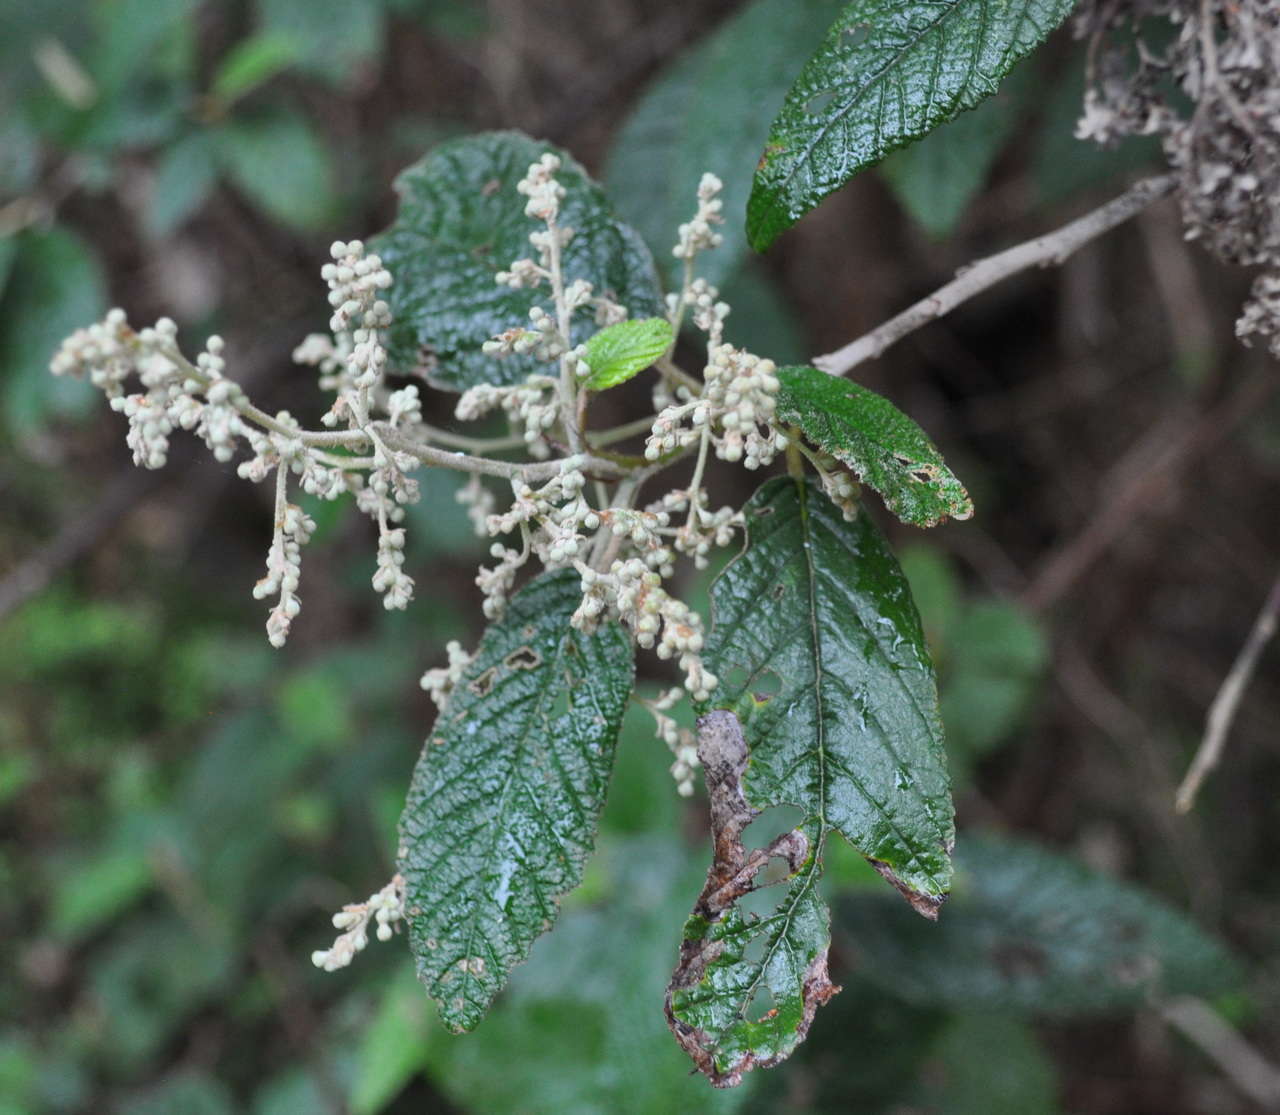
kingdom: Plantae
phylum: Tracheophyta
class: Magnoliopsida
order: Rosales
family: Rhamnaceae
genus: Pomaderris
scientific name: Pomaderris aspera
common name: Hazel pomaderris
